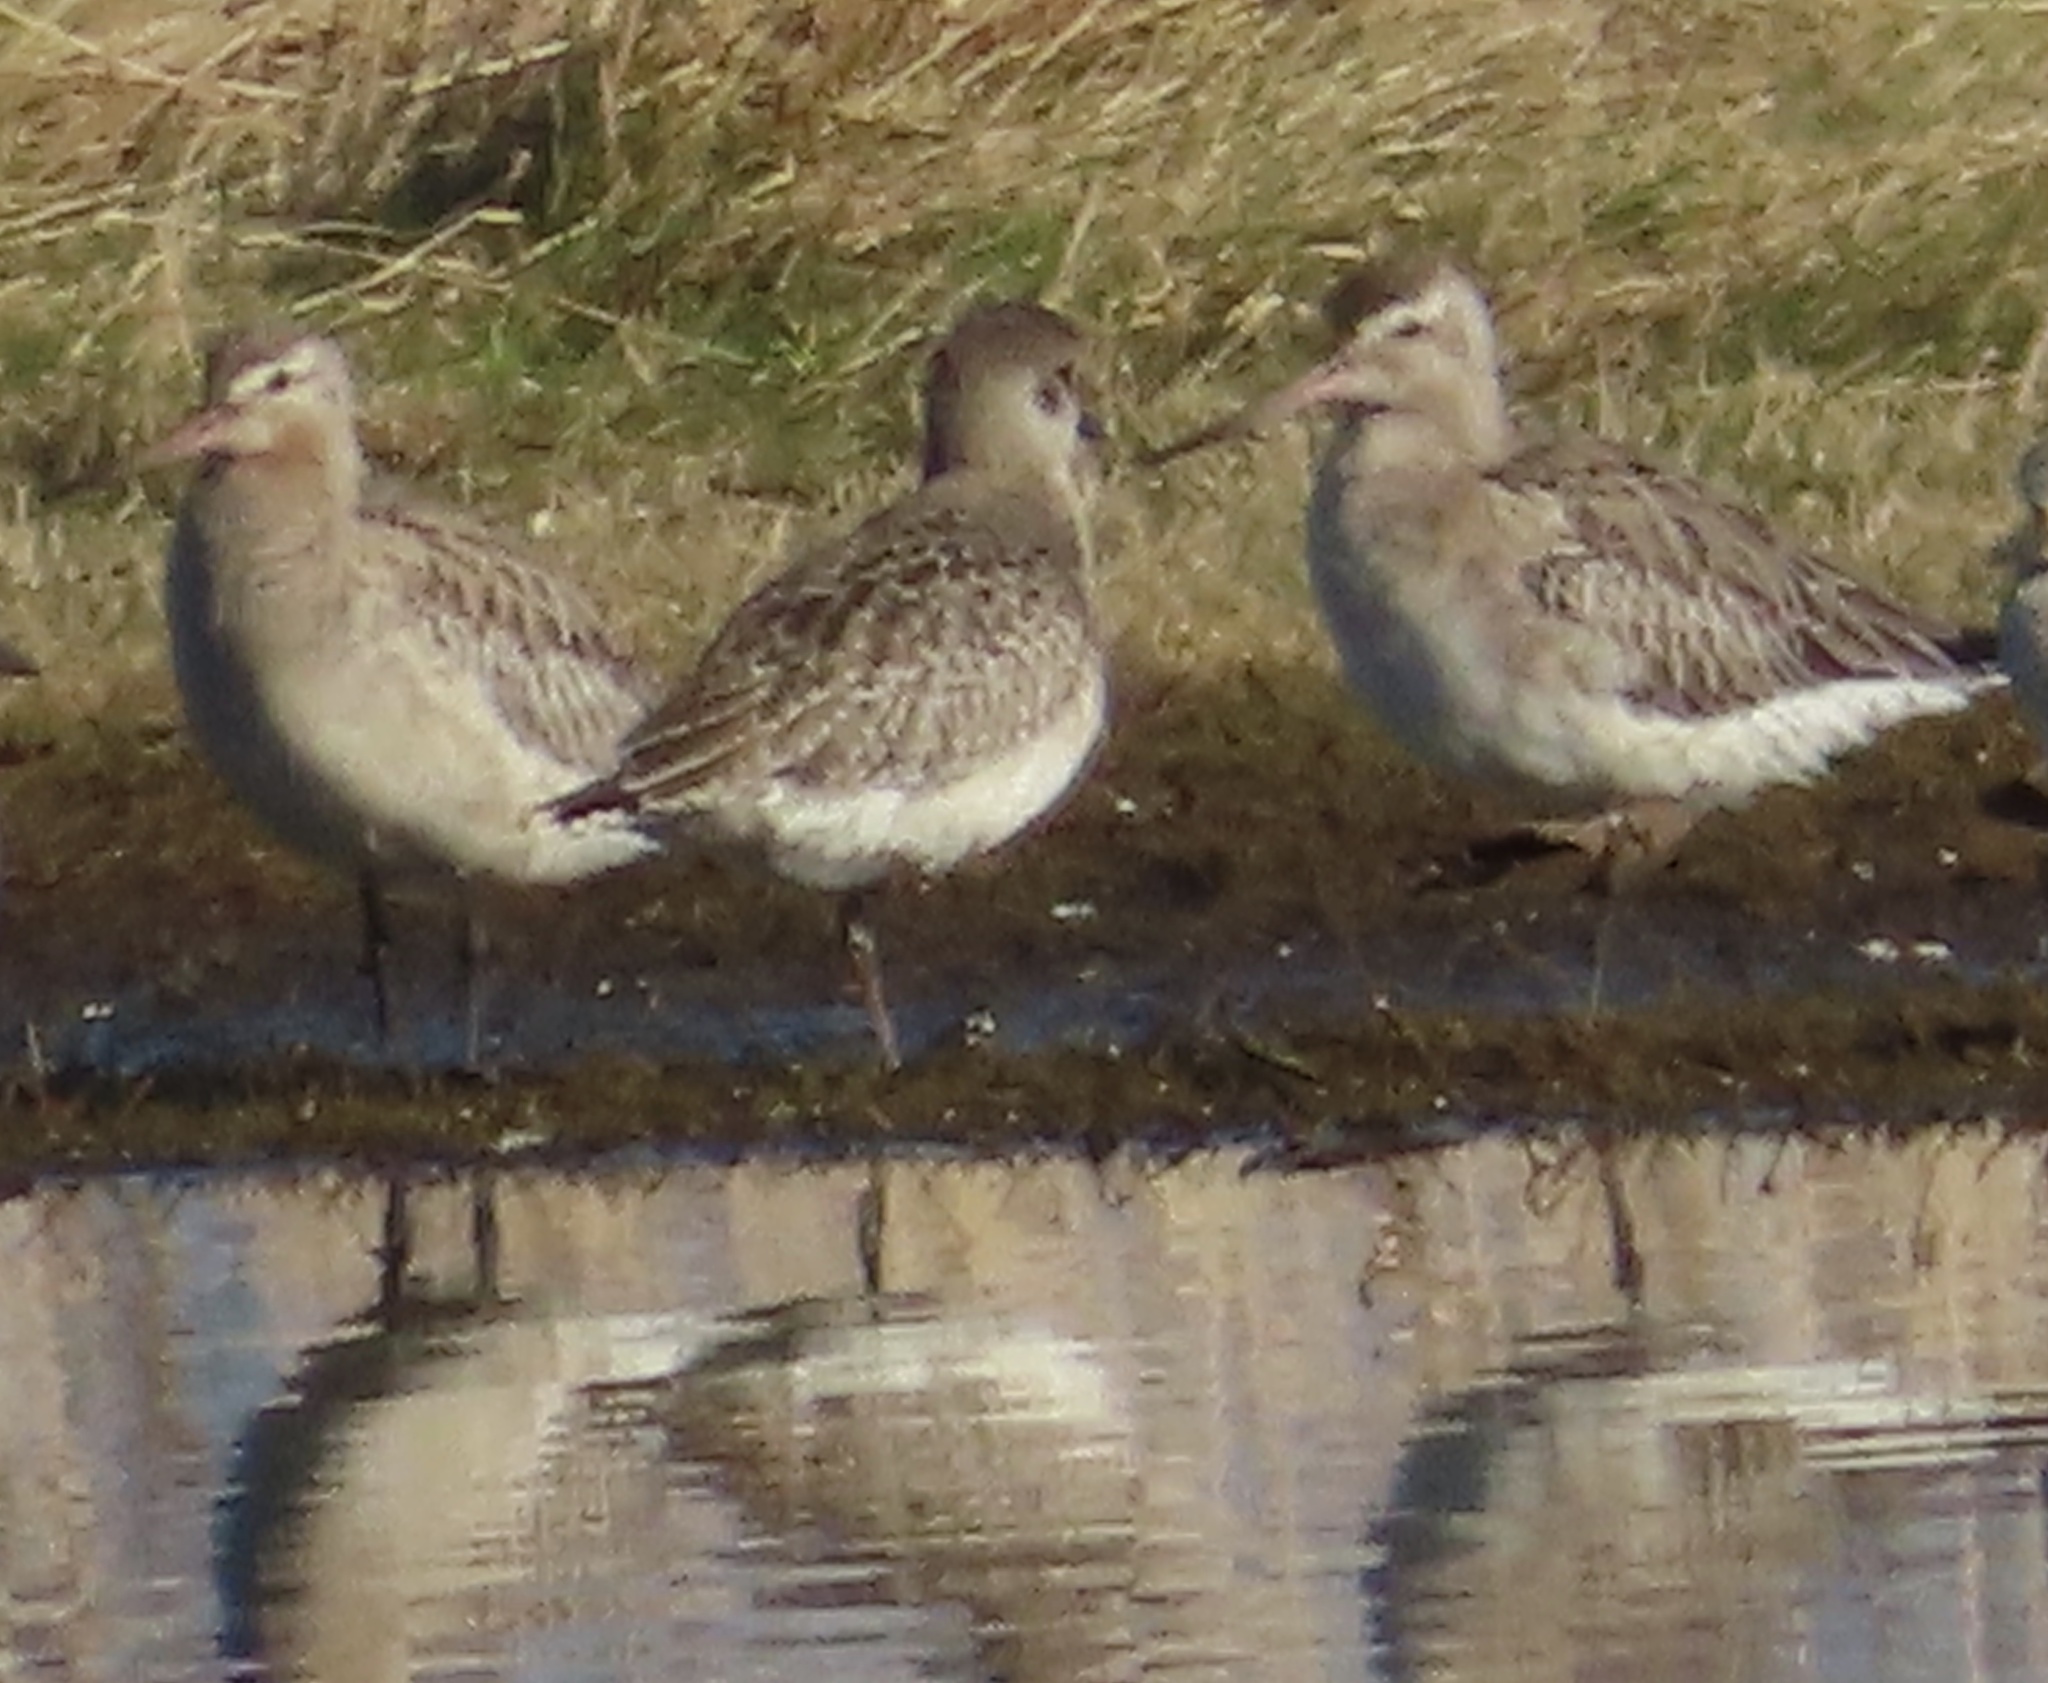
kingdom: Animalia
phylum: Chordata
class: Aves
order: Charadriiformes
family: Scolopacidae
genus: Limosa
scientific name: Limosa lapponica
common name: Bar-tailed godwit
